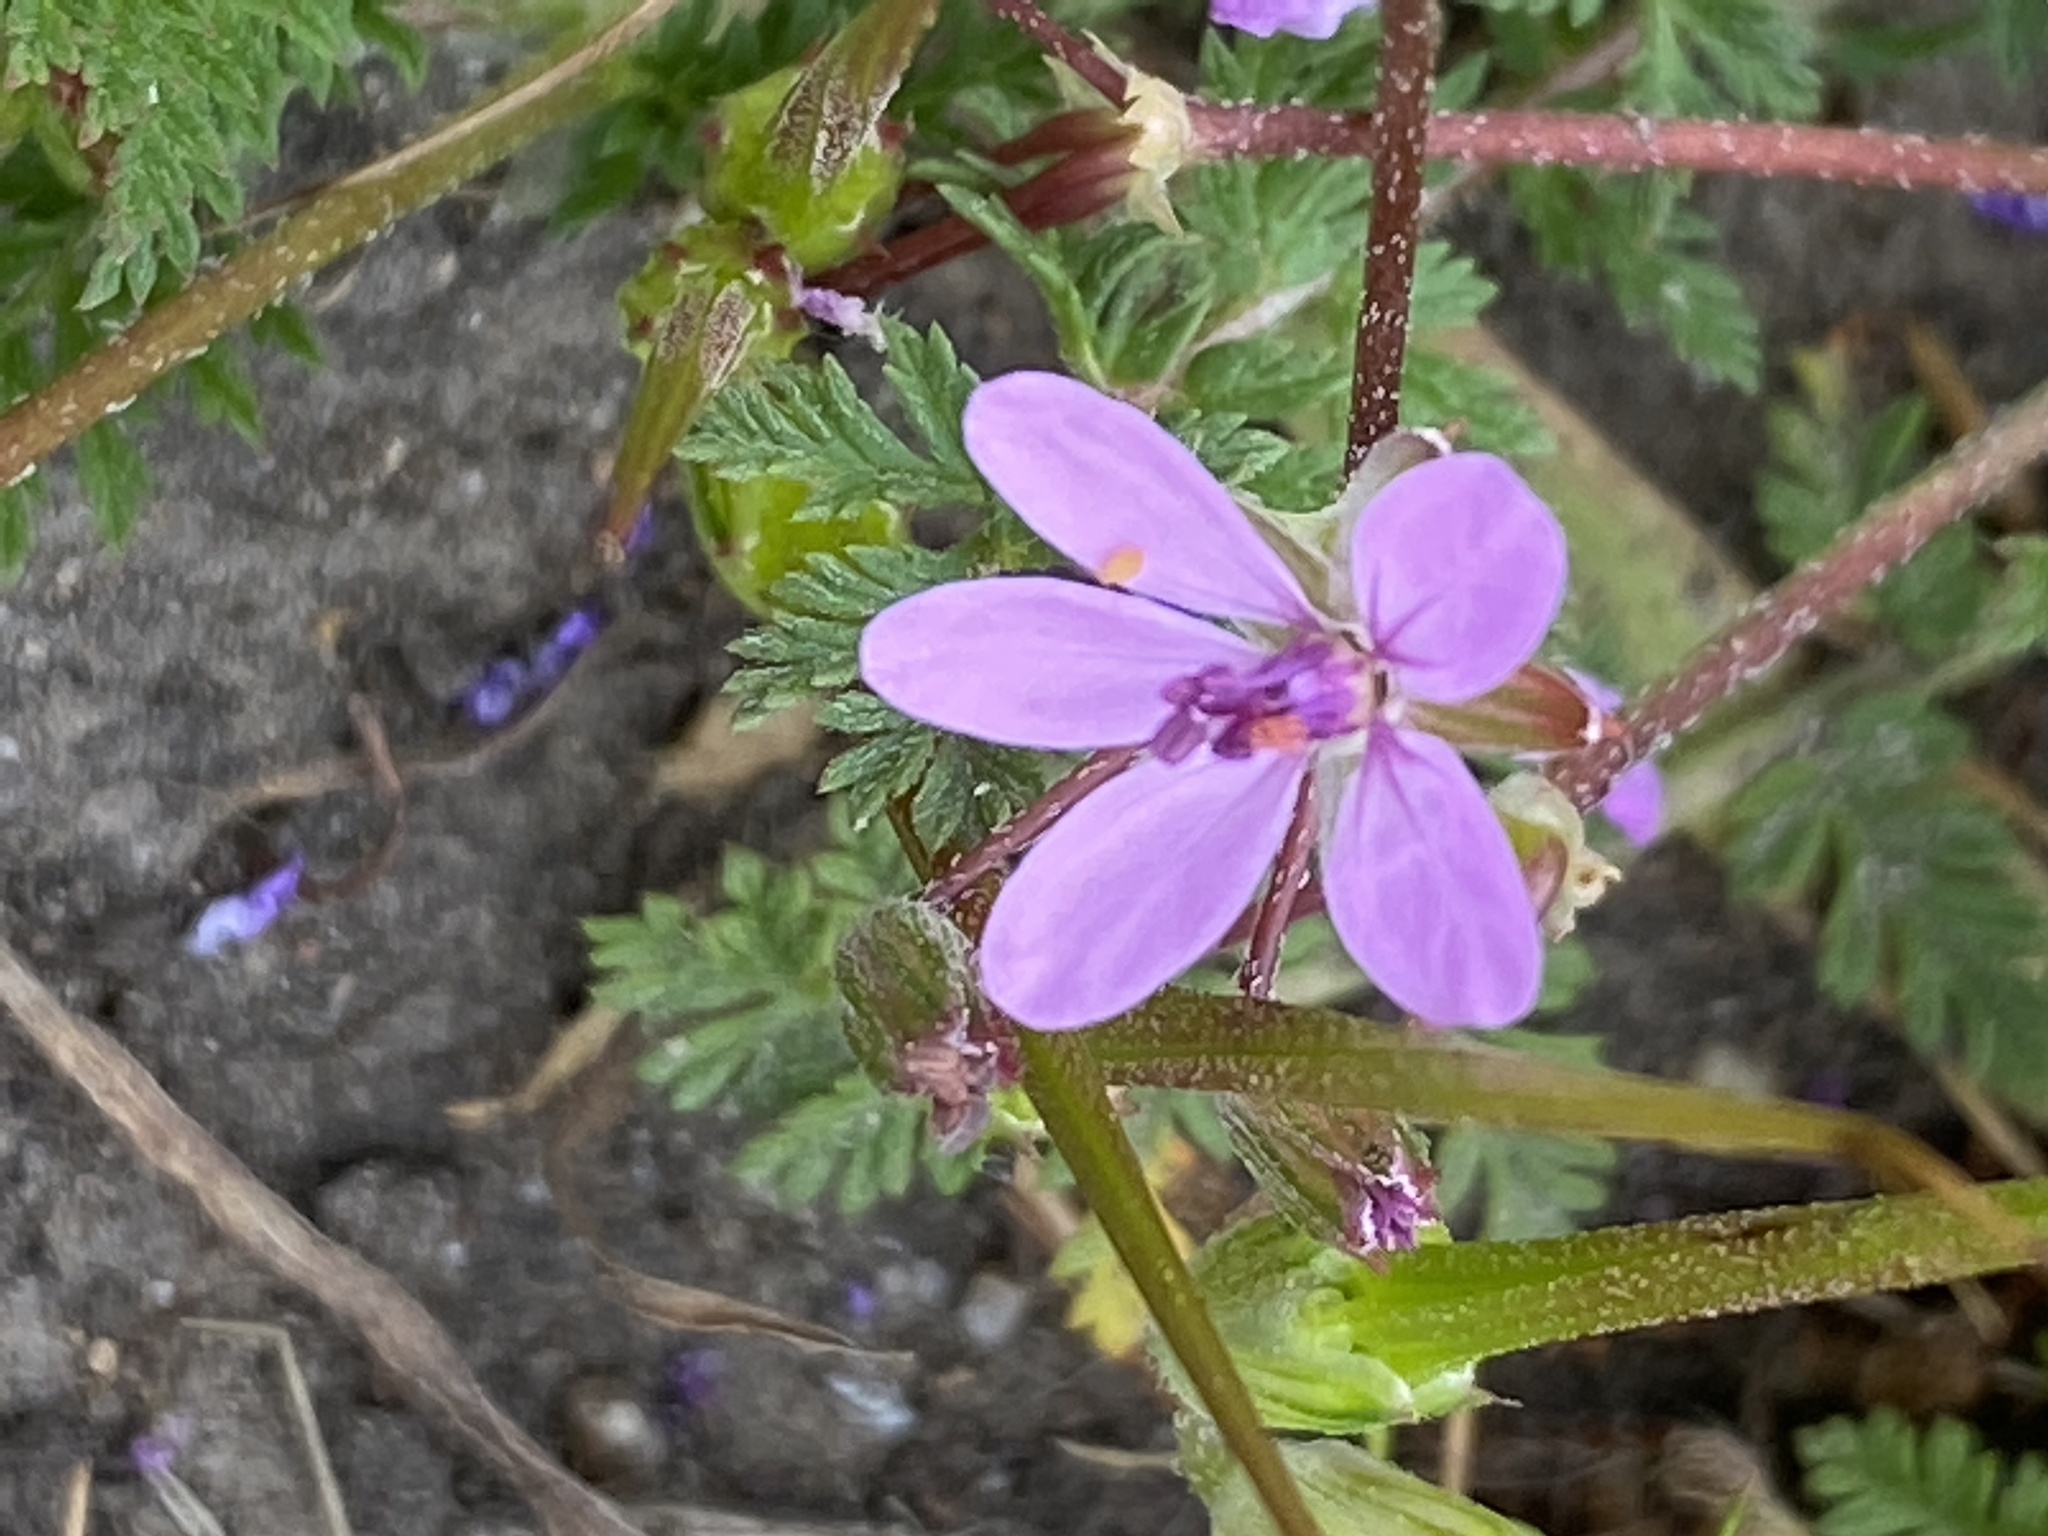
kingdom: Plantae
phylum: Tracheophyta
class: Magnoliopsida
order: Geraniales
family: Geraniaceae
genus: Erodium
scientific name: Erodium cicutarium
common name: Common stork's-bill
